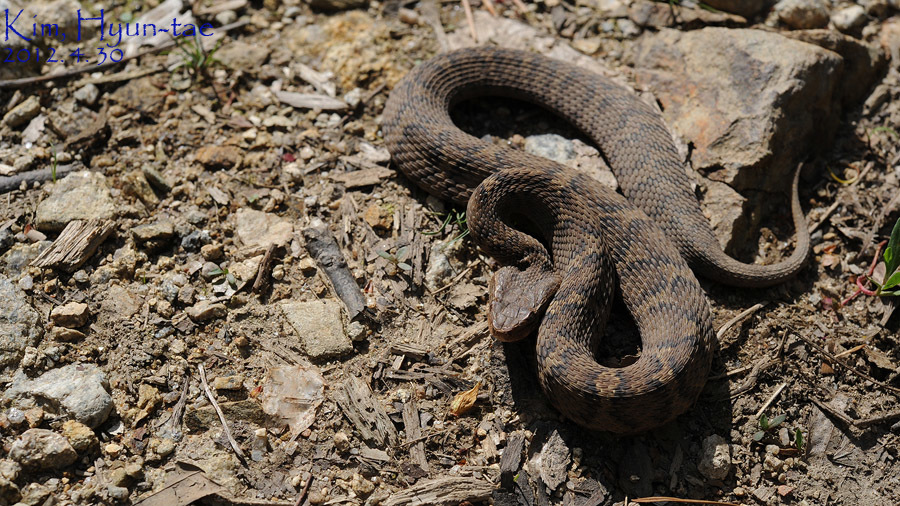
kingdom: Animalia
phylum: Chordata
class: Squamata
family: Viperidae
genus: Gloydius
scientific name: Gloydius ussuriensis
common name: Ussuri mamushi
